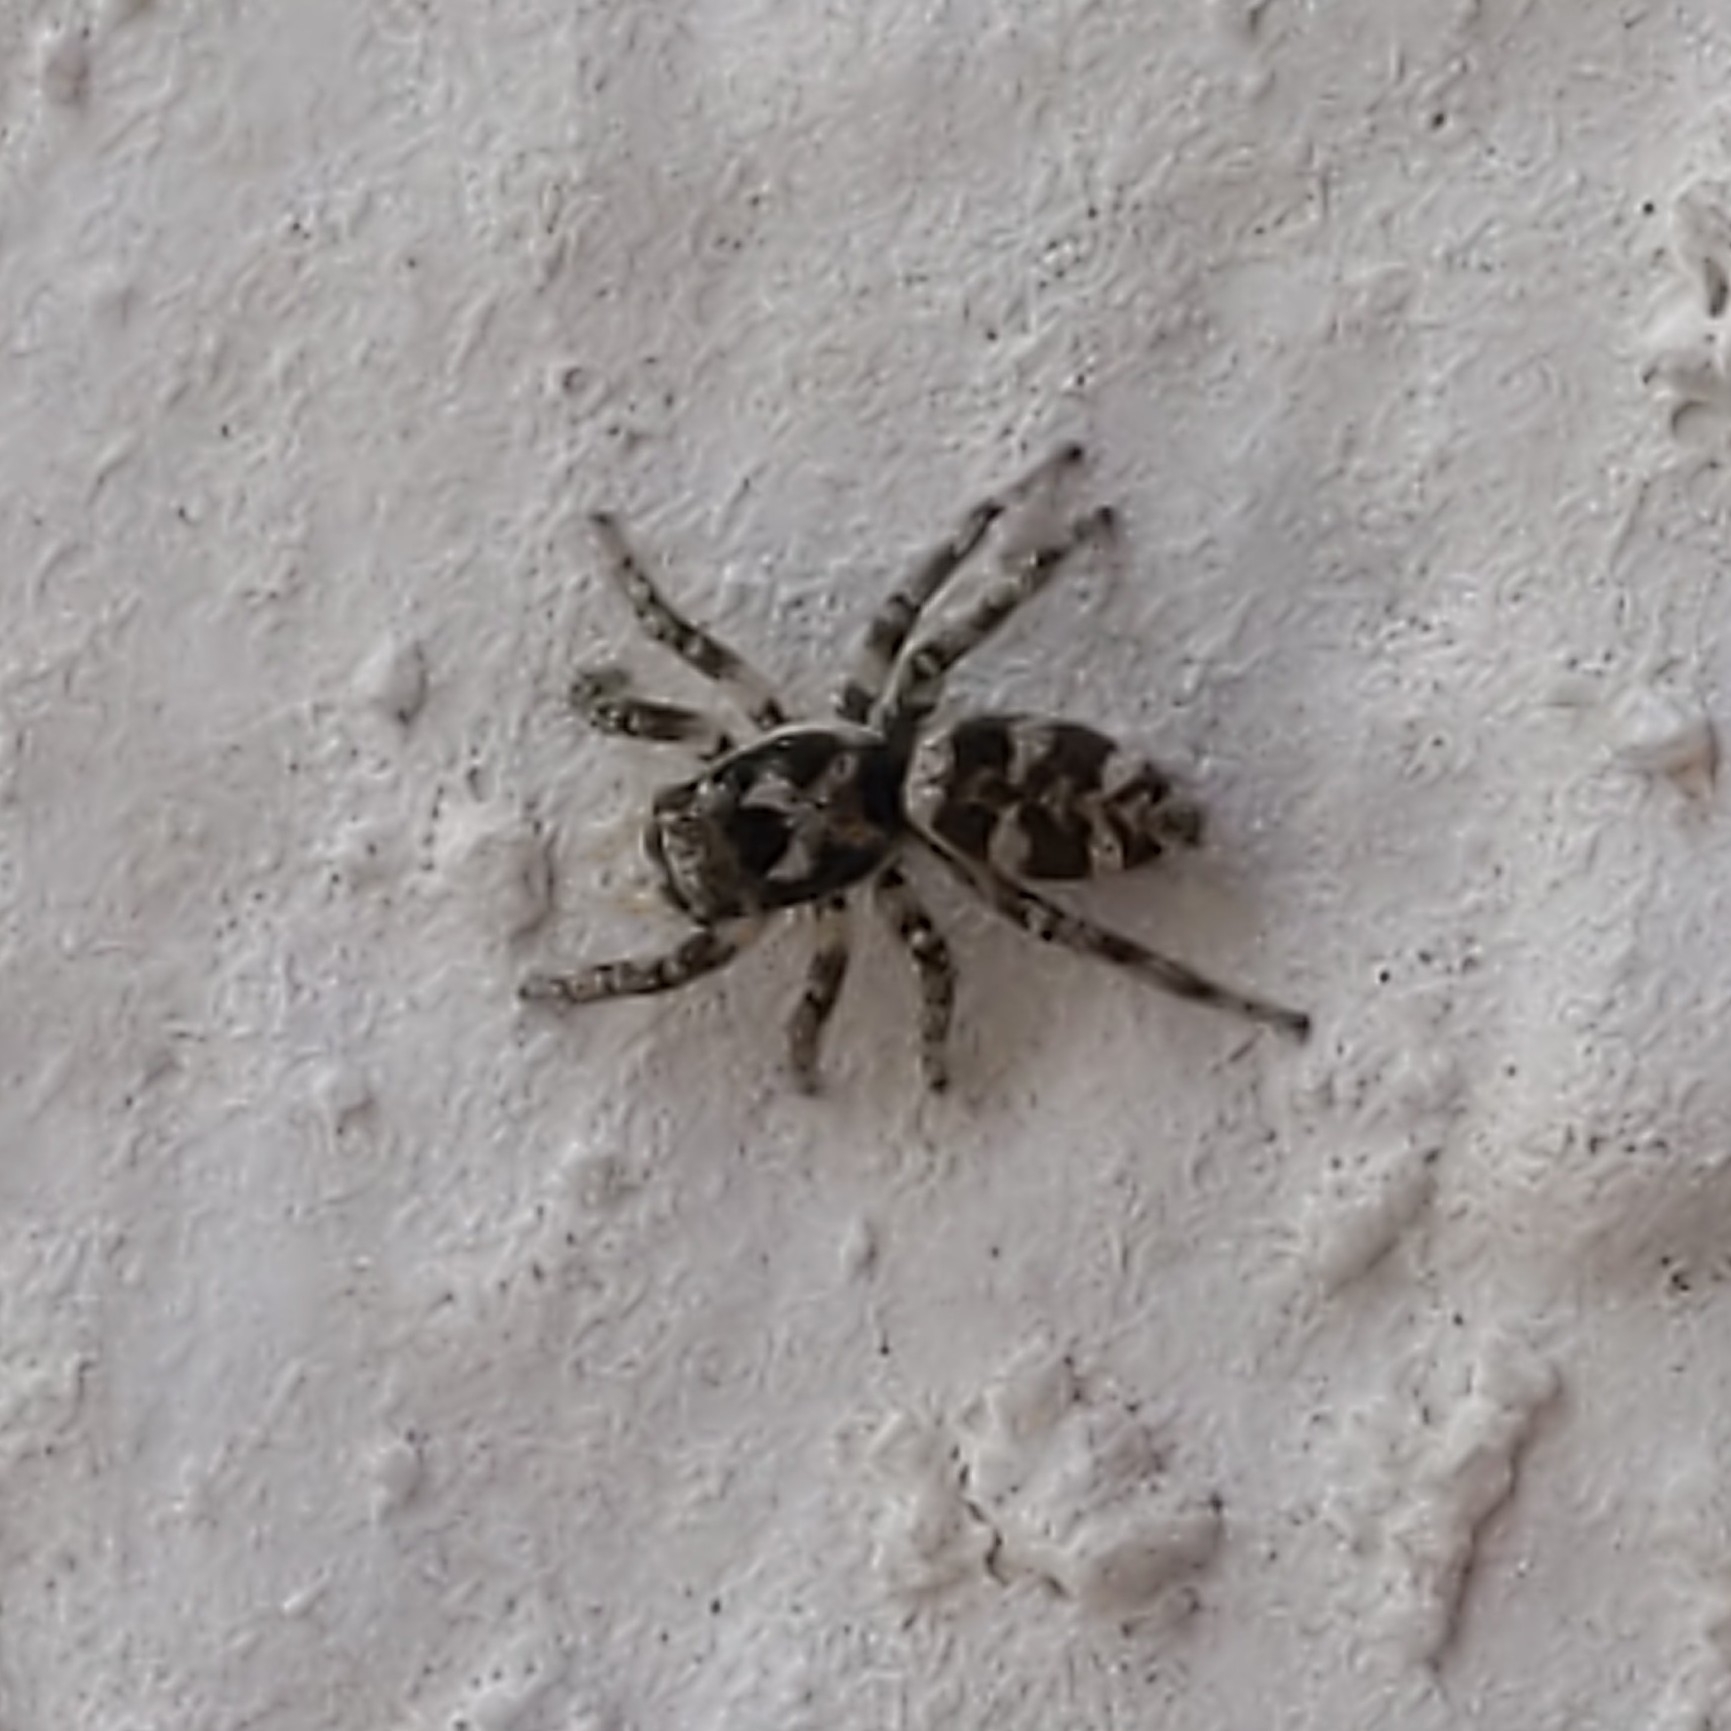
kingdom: Animalia
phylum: Arthropoda
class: Arachnida
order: Araneae
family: Salticidae
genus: Salticus
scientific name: Salticus scenicus
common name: Zebra jumper
